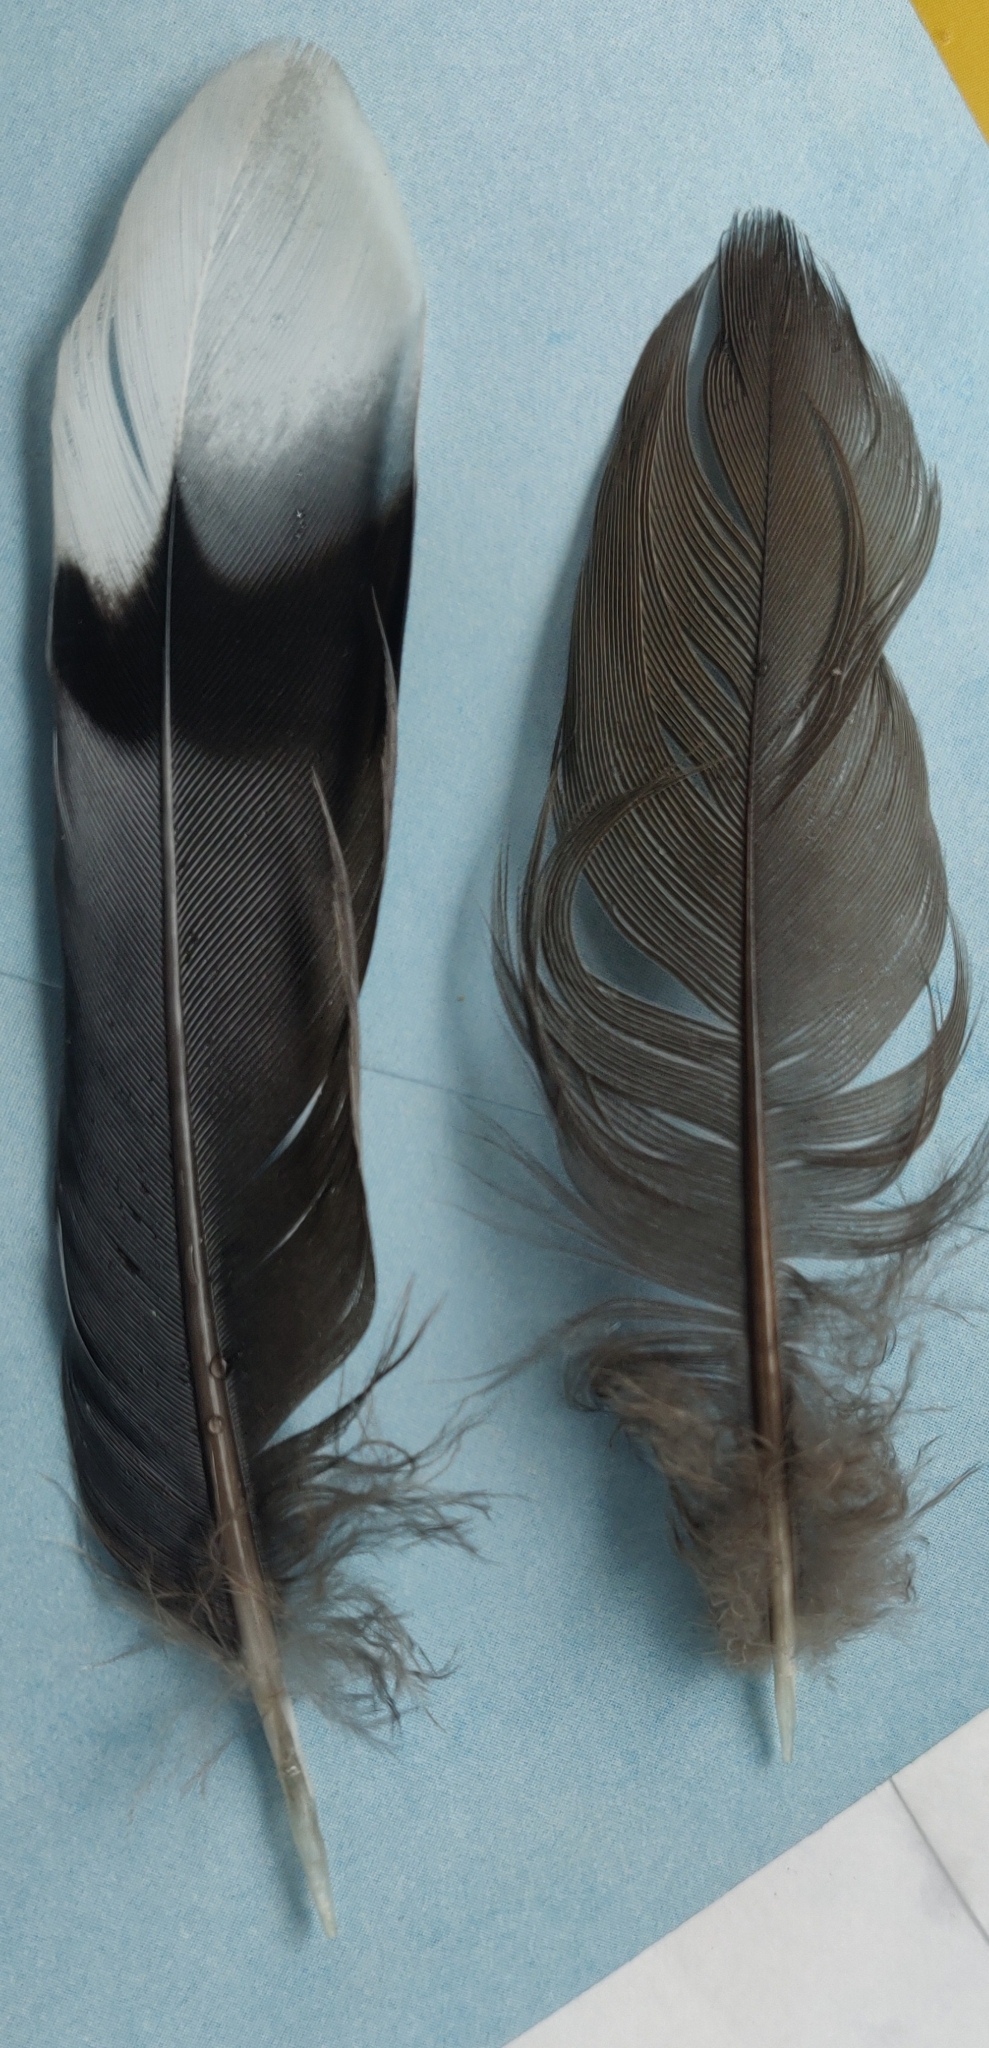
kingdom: Animalia
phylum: Chordata
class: Aves
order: Columbiformes
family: Columbidae
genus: Zenaida
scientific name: Zenaida macroura
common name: Mourning dove
